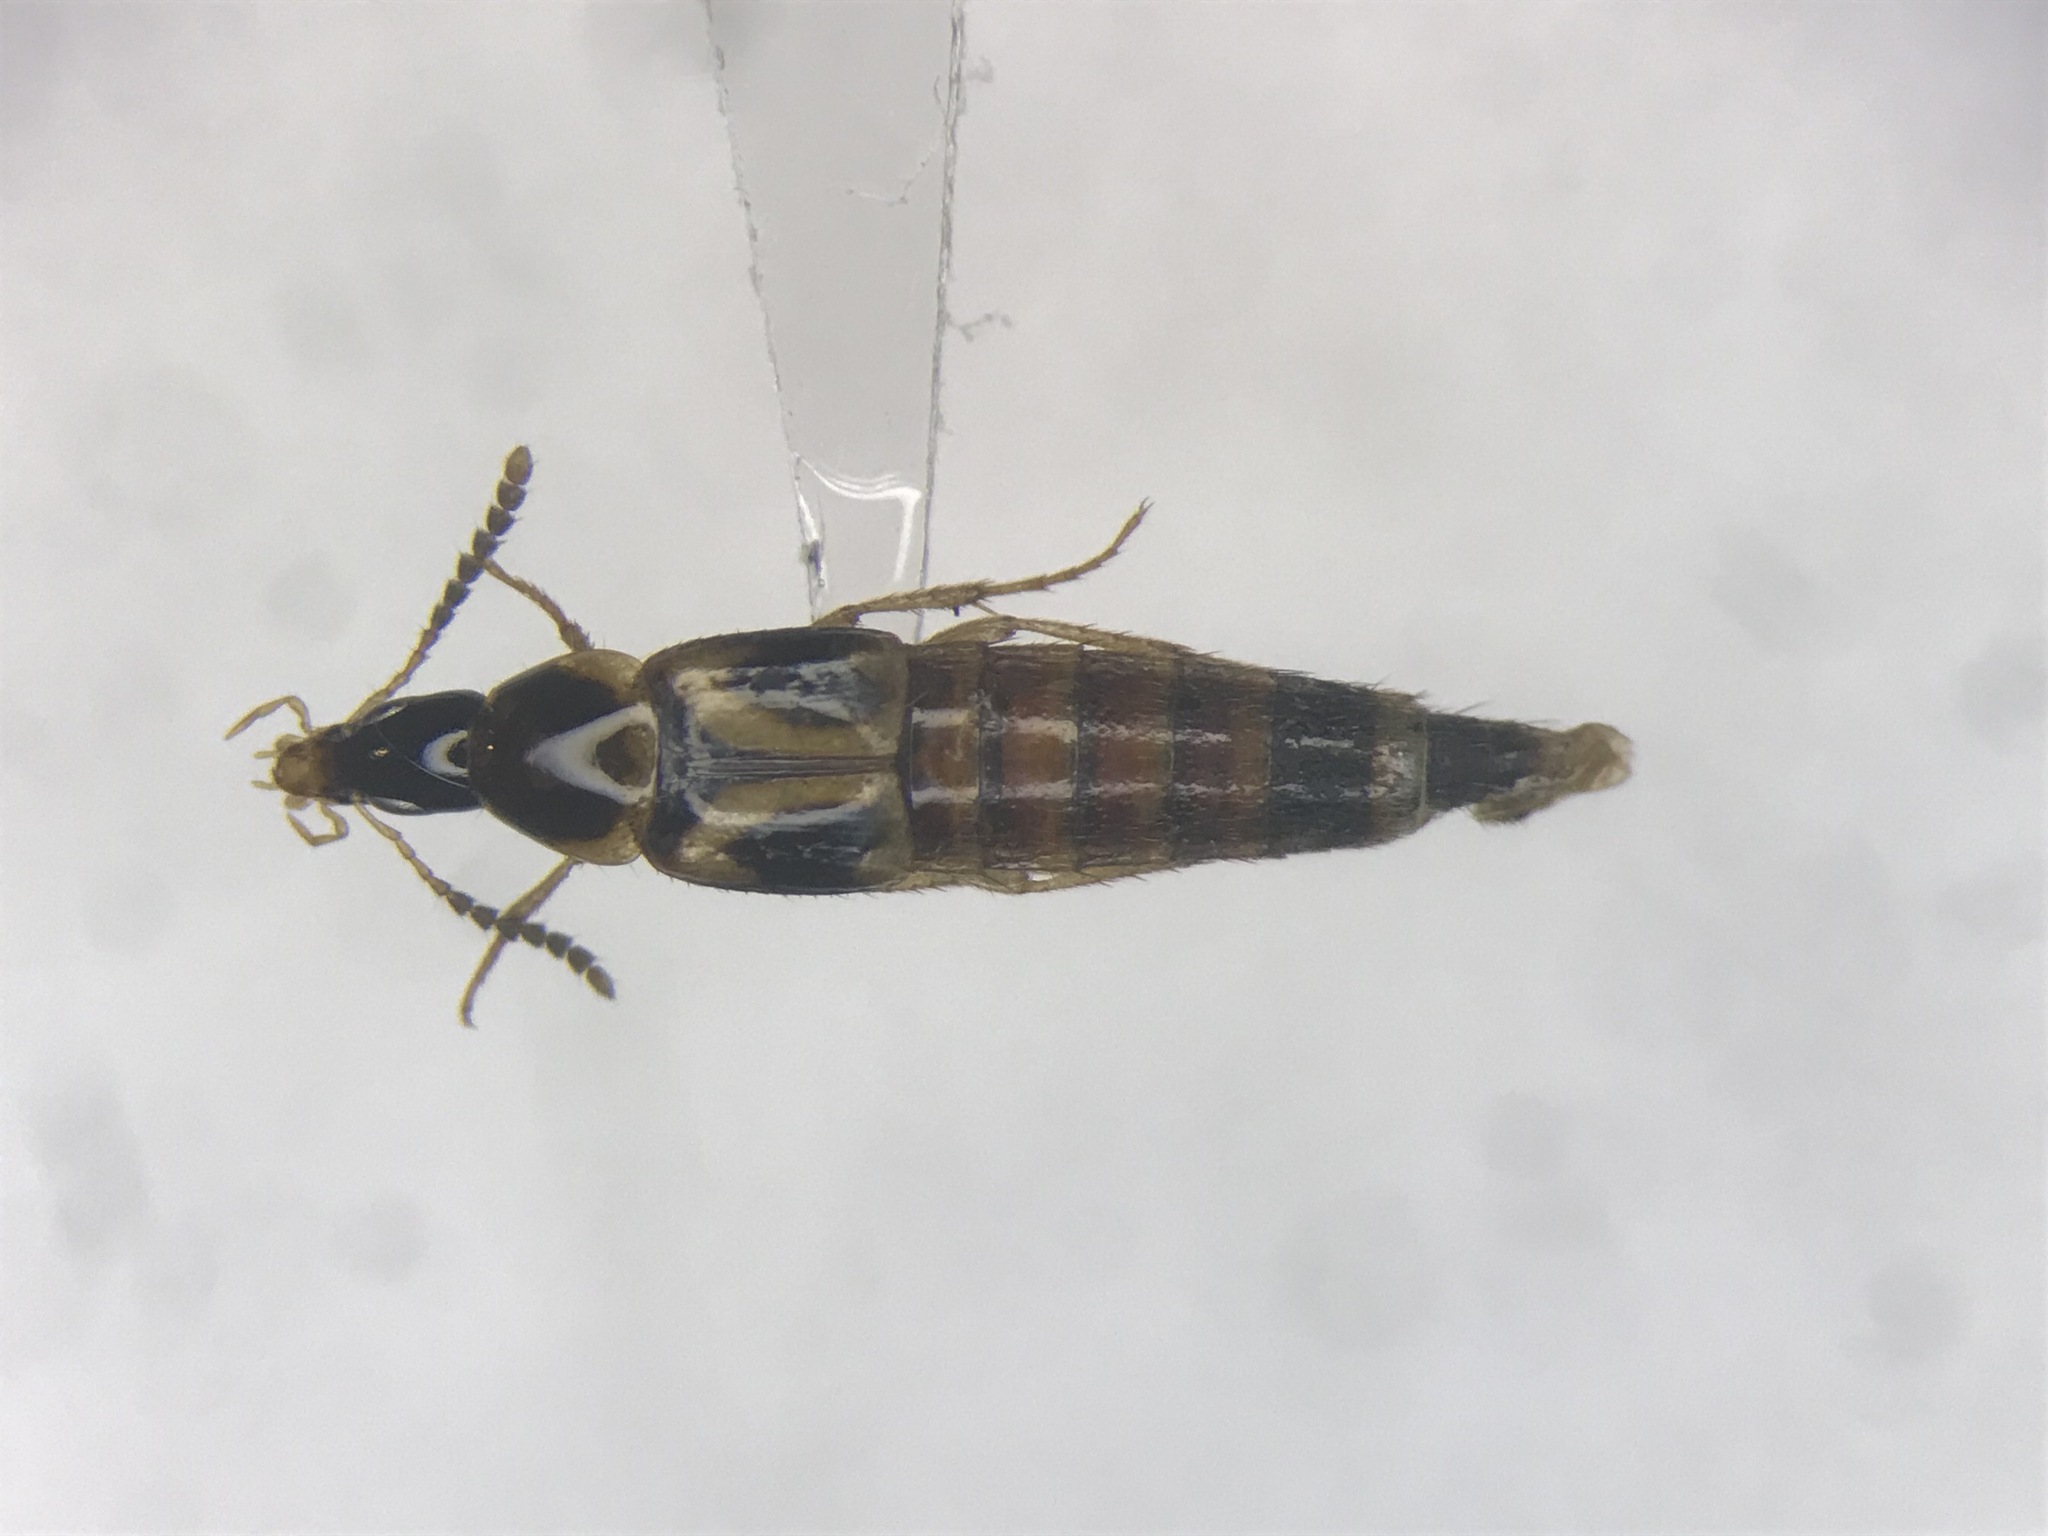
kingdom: Animalia
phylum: Arthropoda
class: Insecta
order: Coleoptera
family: Staphylinidae
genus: Bobitobus
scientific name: Bobitobus kelleyi
